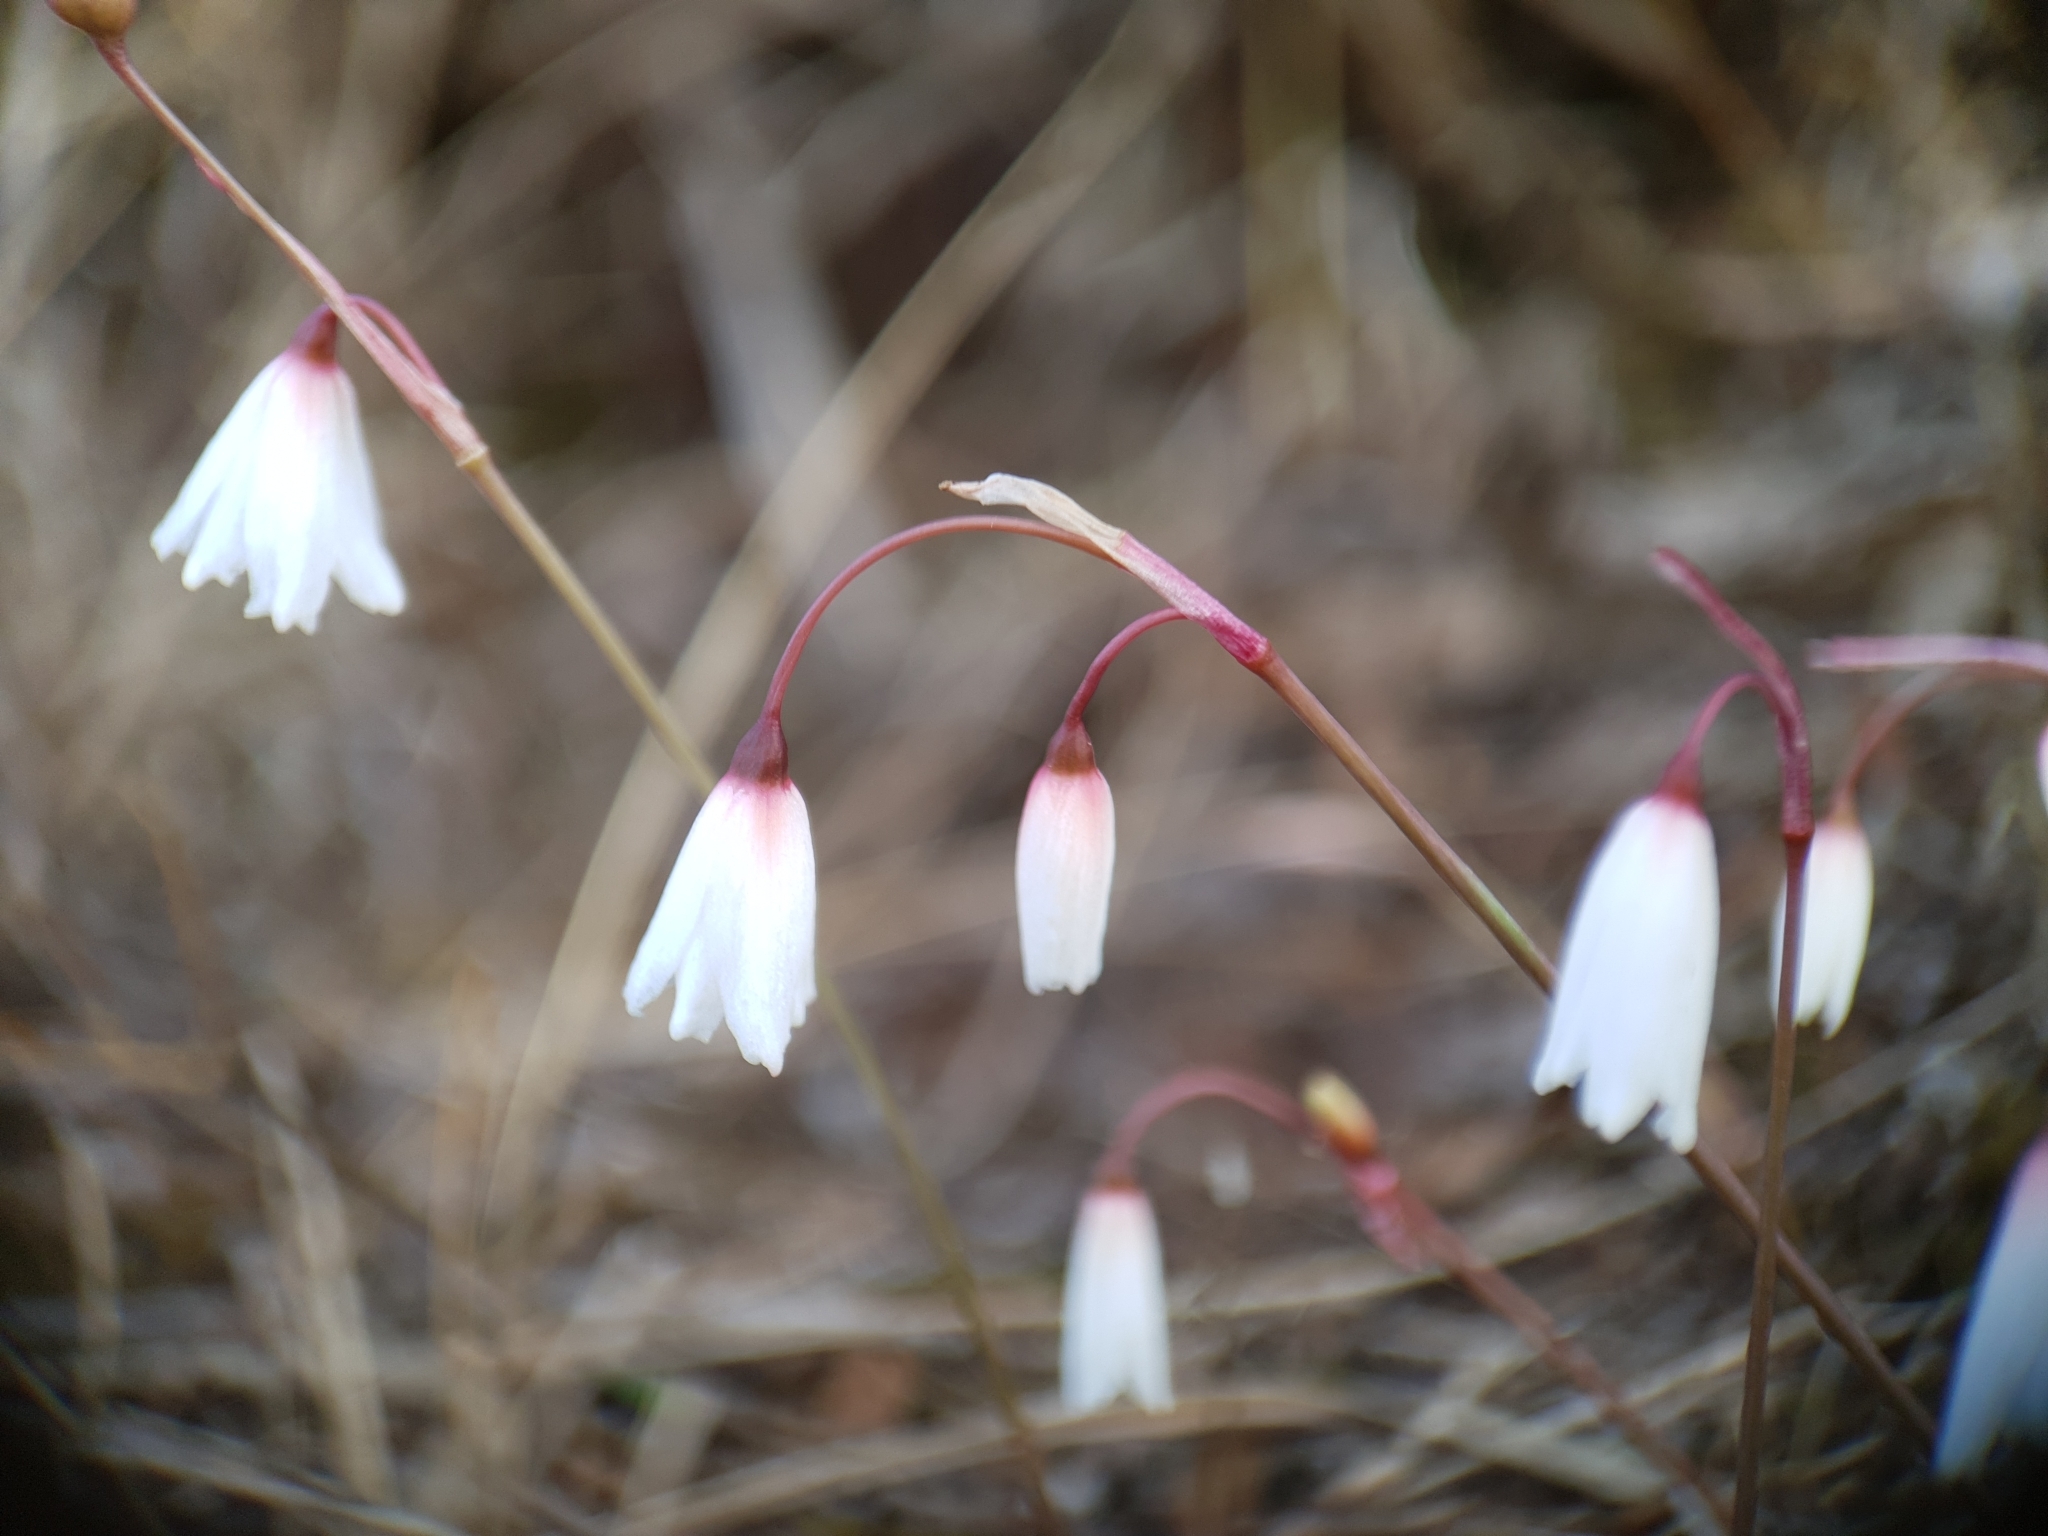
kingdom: Plantae
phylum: Tracheophyta
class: Liliopsida
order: Asparagales
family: Amaryllidaceae
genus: Acis
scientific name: Acis autumnalis
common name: Autumn snowflake
